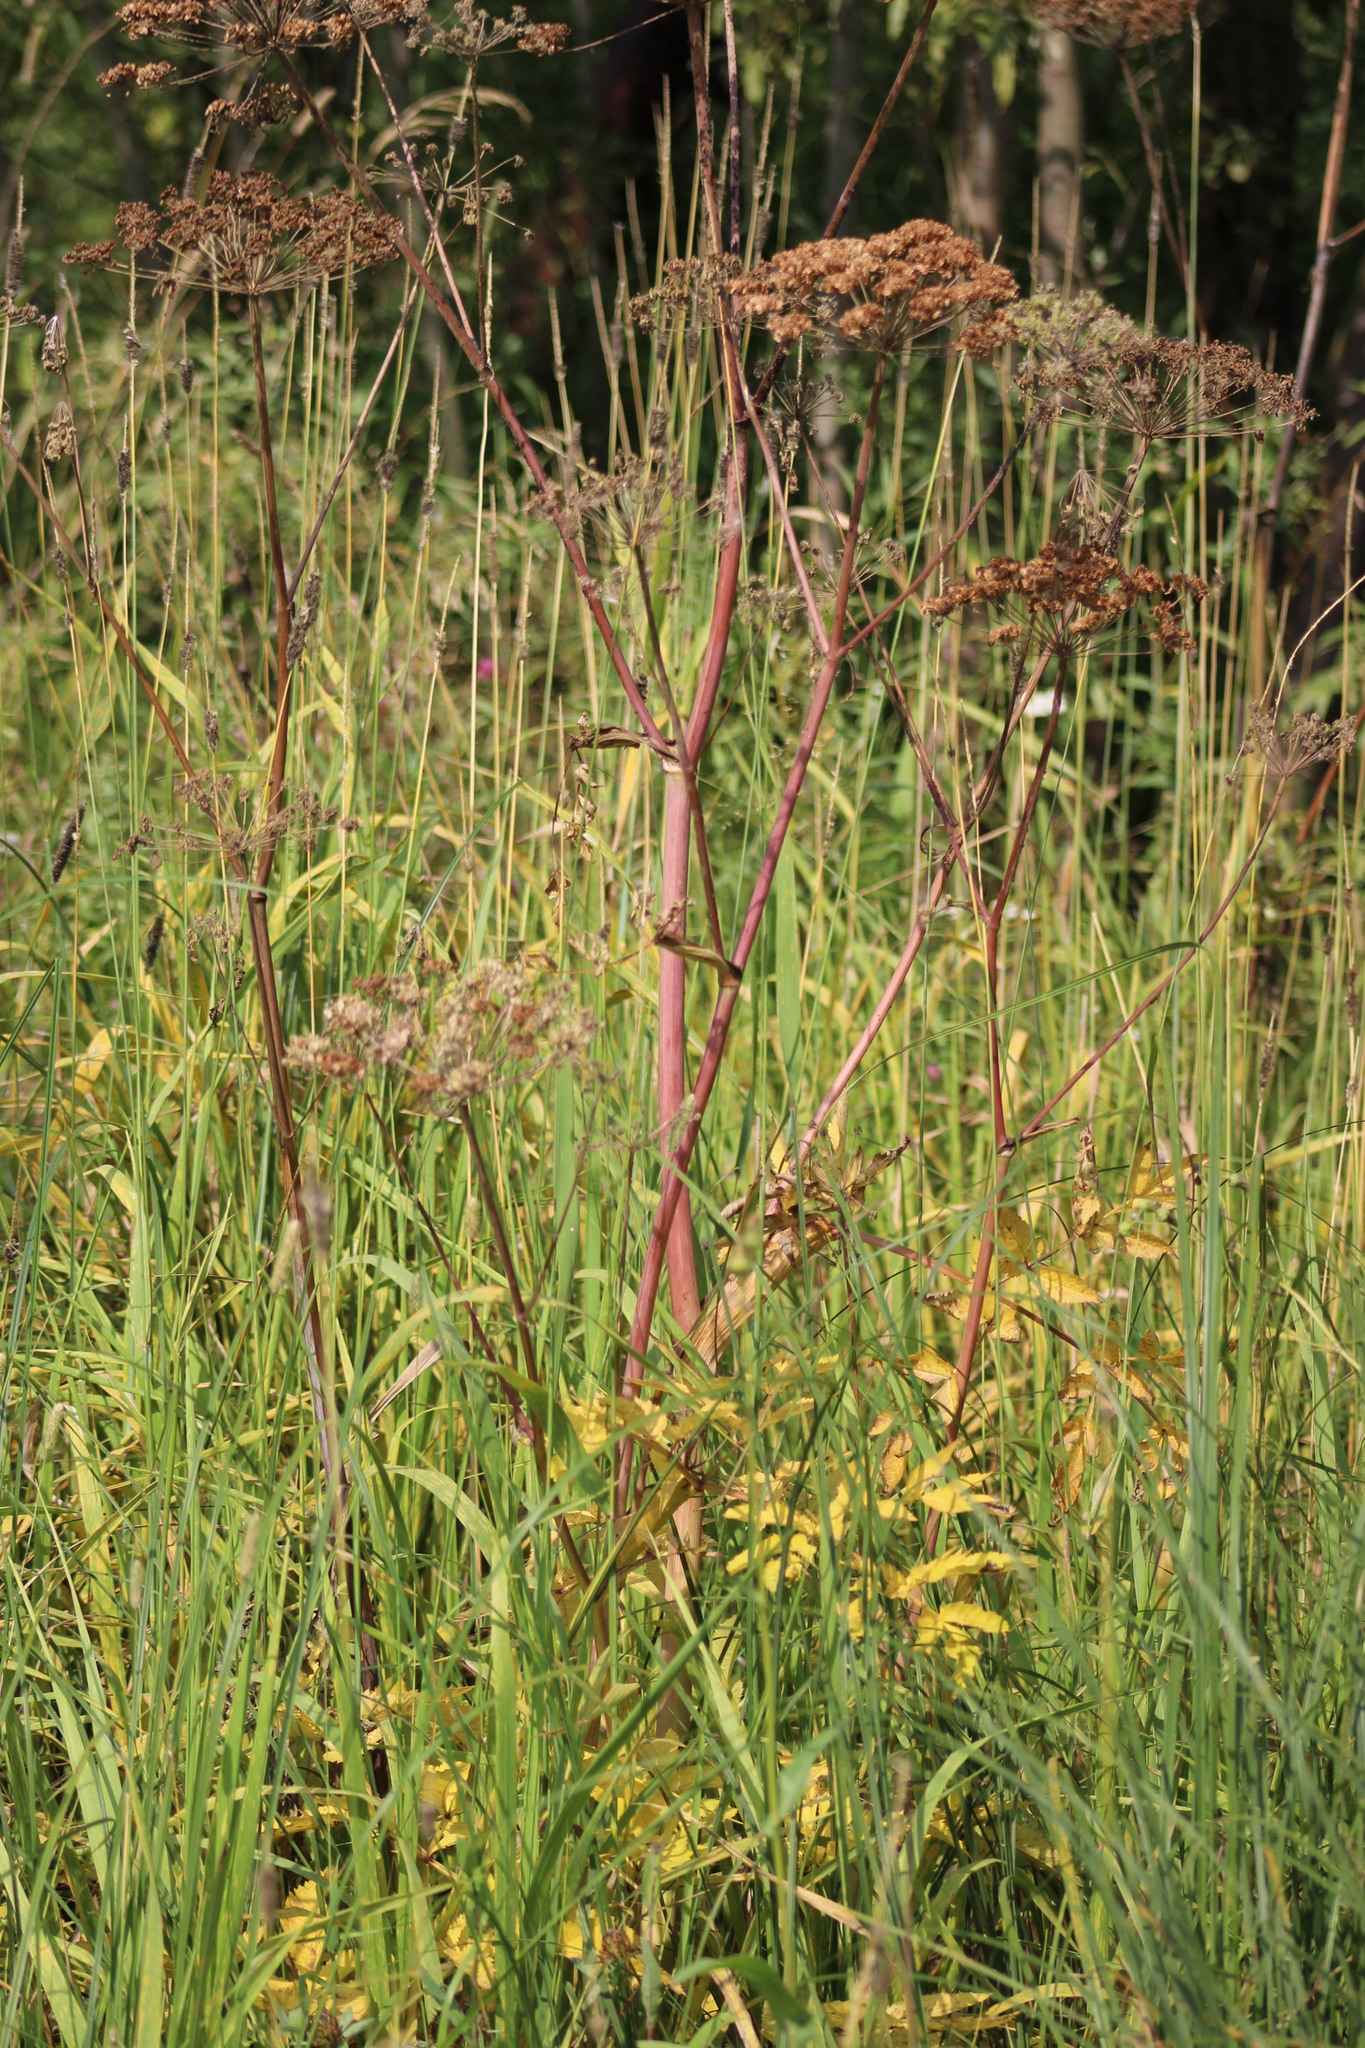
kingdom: Plantae
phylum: Tracheophyta
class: Magnoliopsida
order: Apiales
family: Apiaceae
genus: Angelica
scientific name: Angelica sylvestris
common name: Wild angelica
